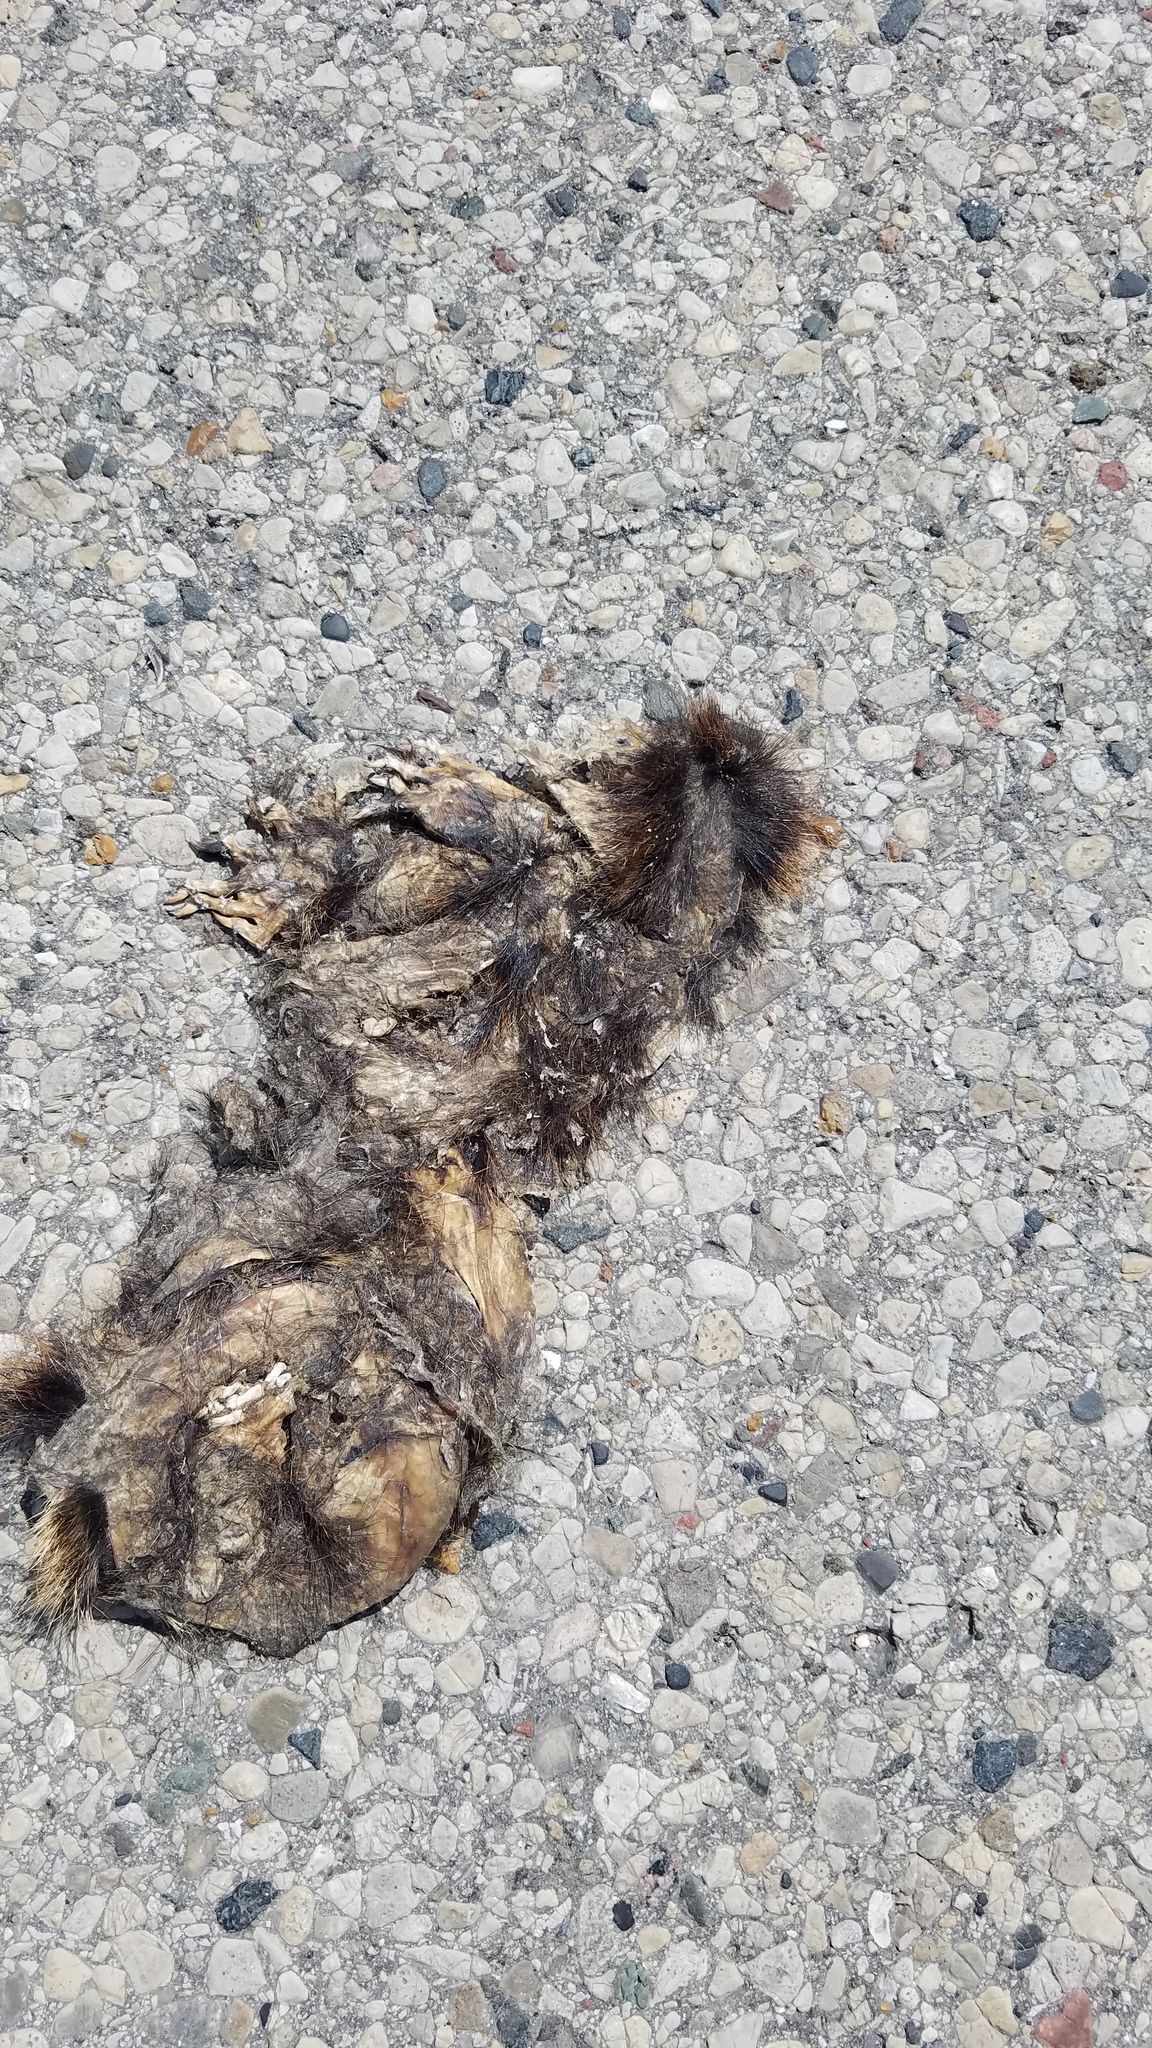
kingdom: Animalia
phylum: Chordata
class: Mammalia
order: Soricomorpha
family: Talpidae
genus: Scalopus
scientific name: Scalopus aquaticus
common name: Eastern mole
